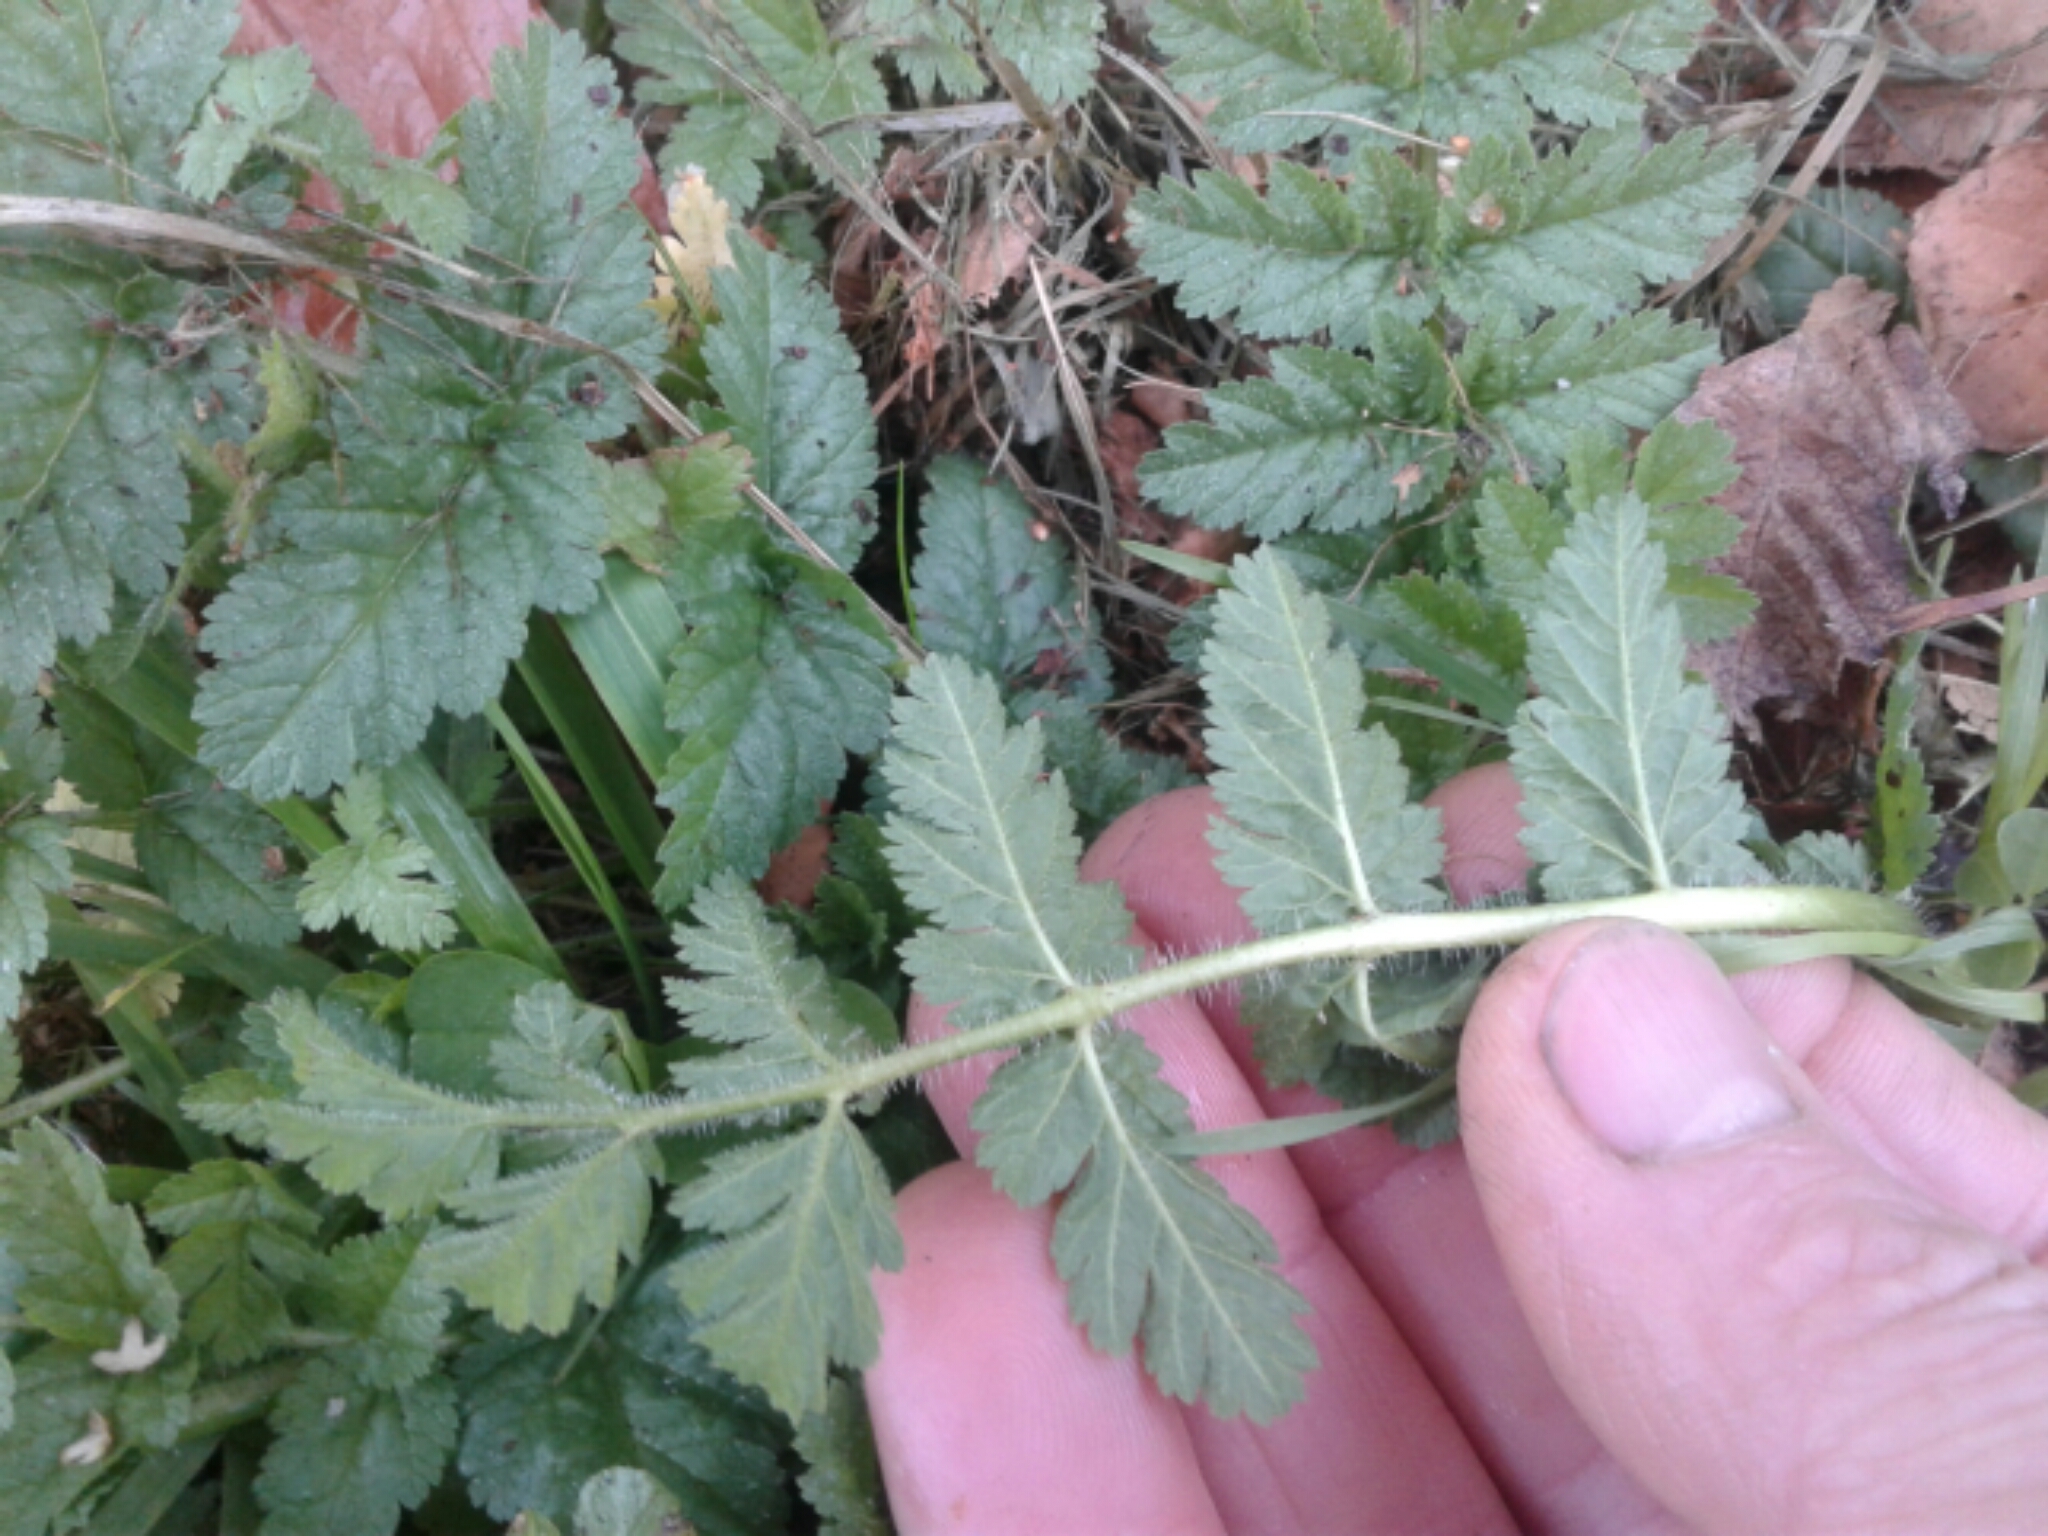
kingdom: Plantae
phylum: Tracheophyta
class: Magnoliopsida
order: Geraniales
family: Geraniaceae
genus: Erodium
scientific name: Erodium cicutarium
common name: Common stork's-bill
